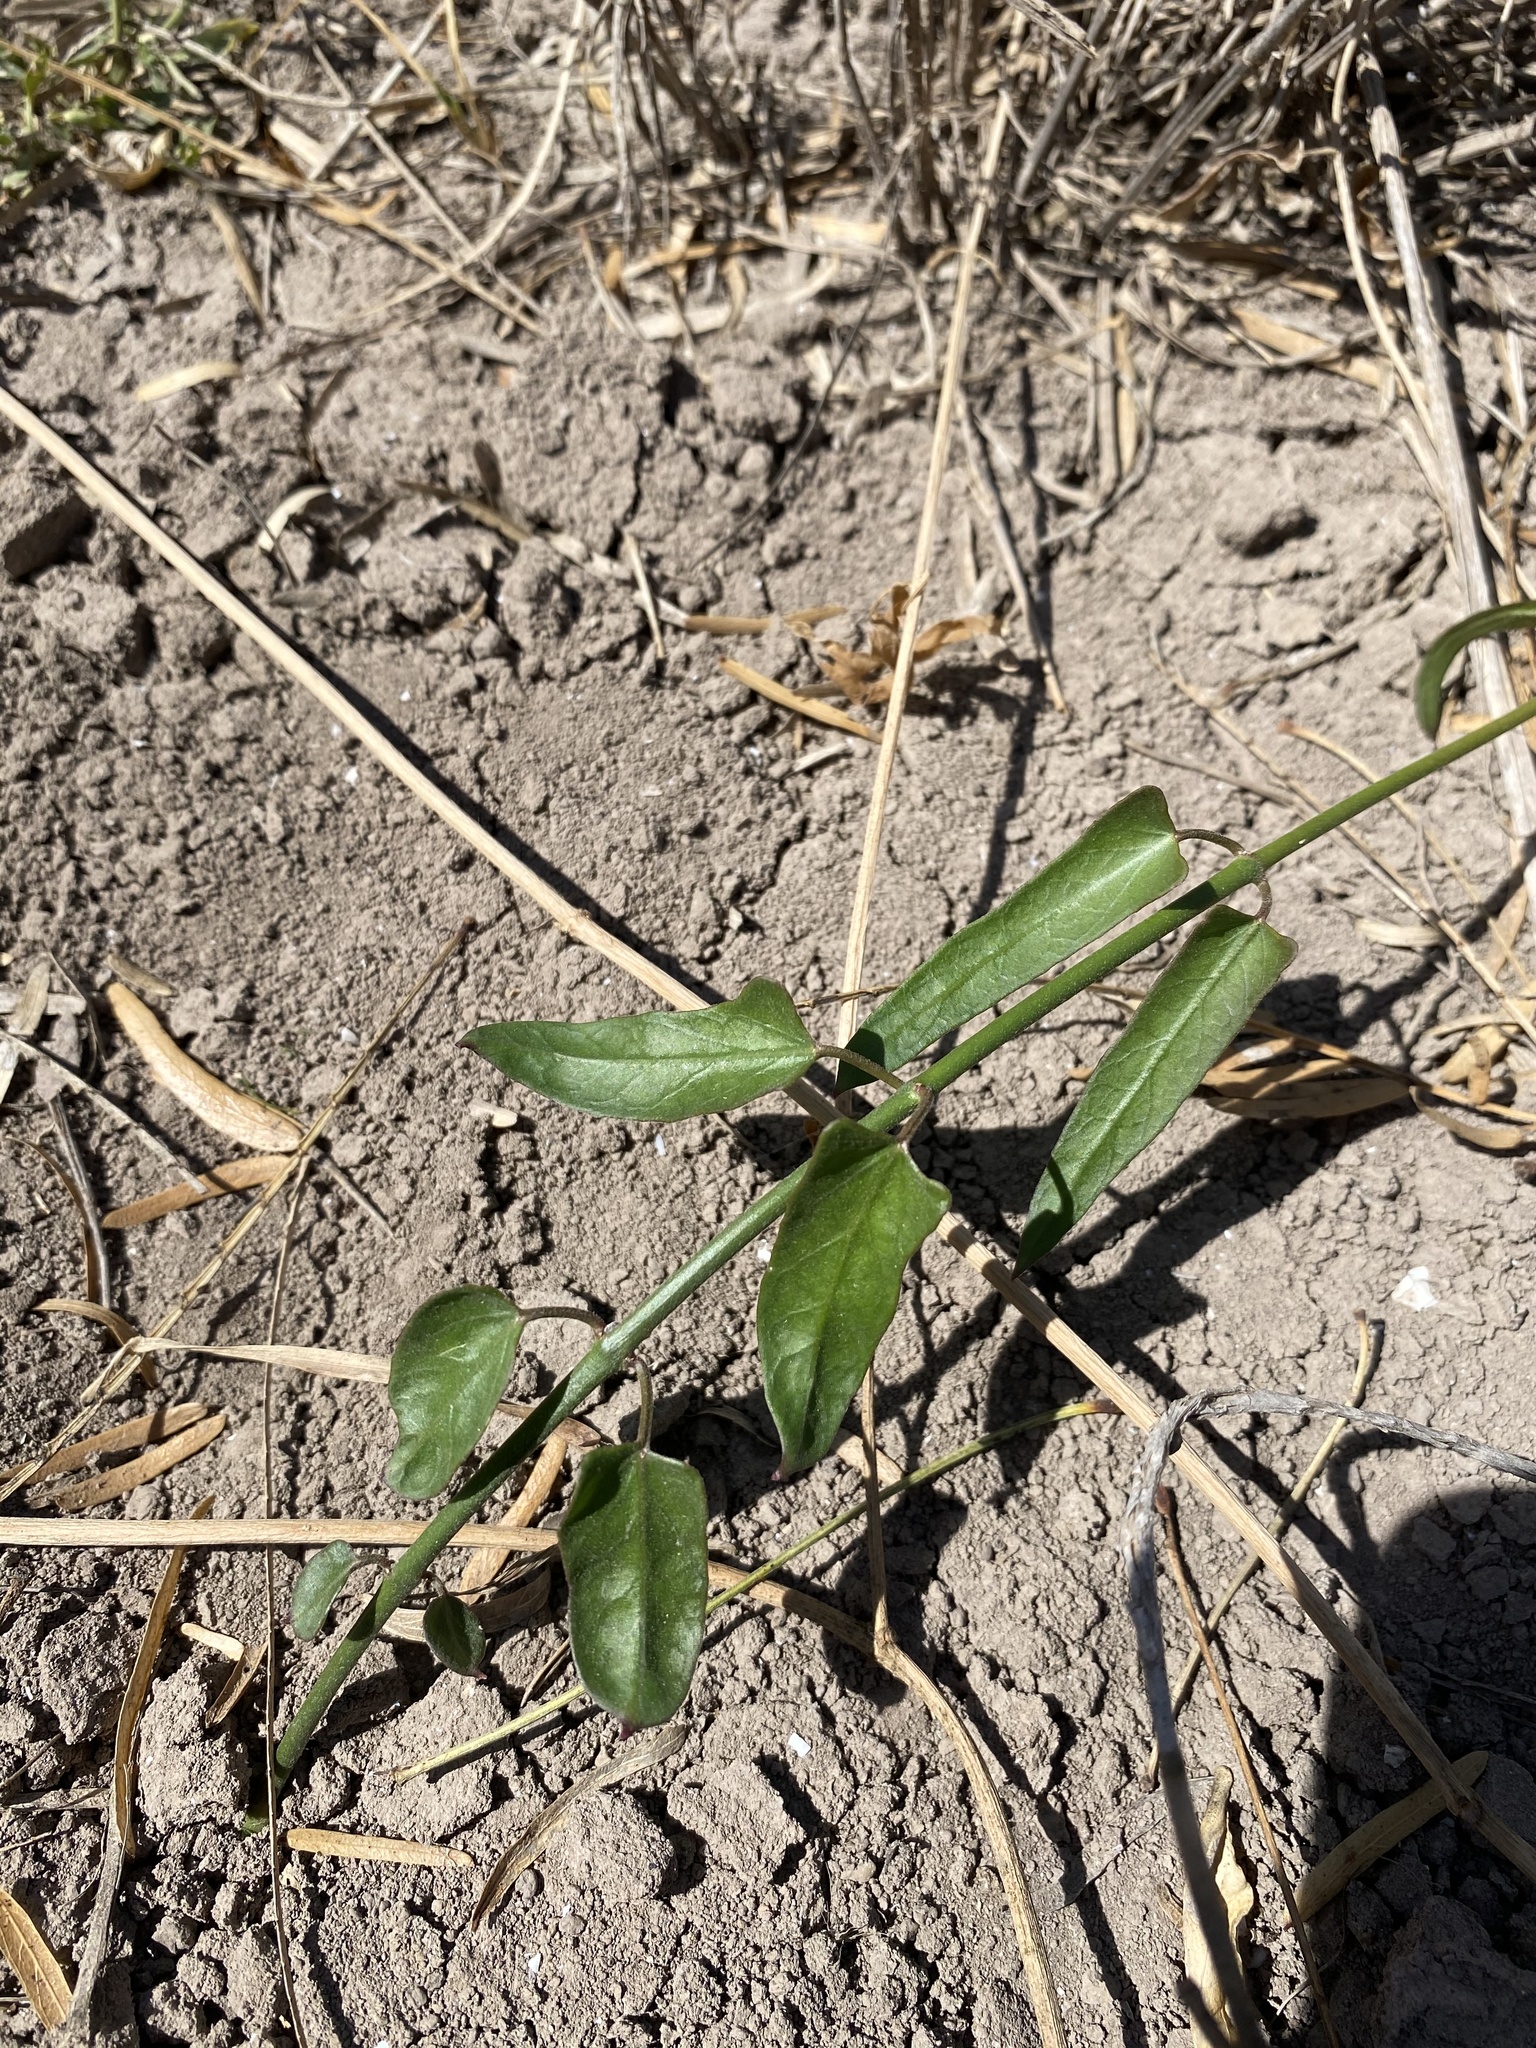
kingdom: Plantae
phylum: Tracheophyta
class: Magnoliopsida
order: Gentianales
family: Apocynaceae
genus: Funastrum
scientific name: Funastrum cynanchoides
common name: Climbing-milkweed
